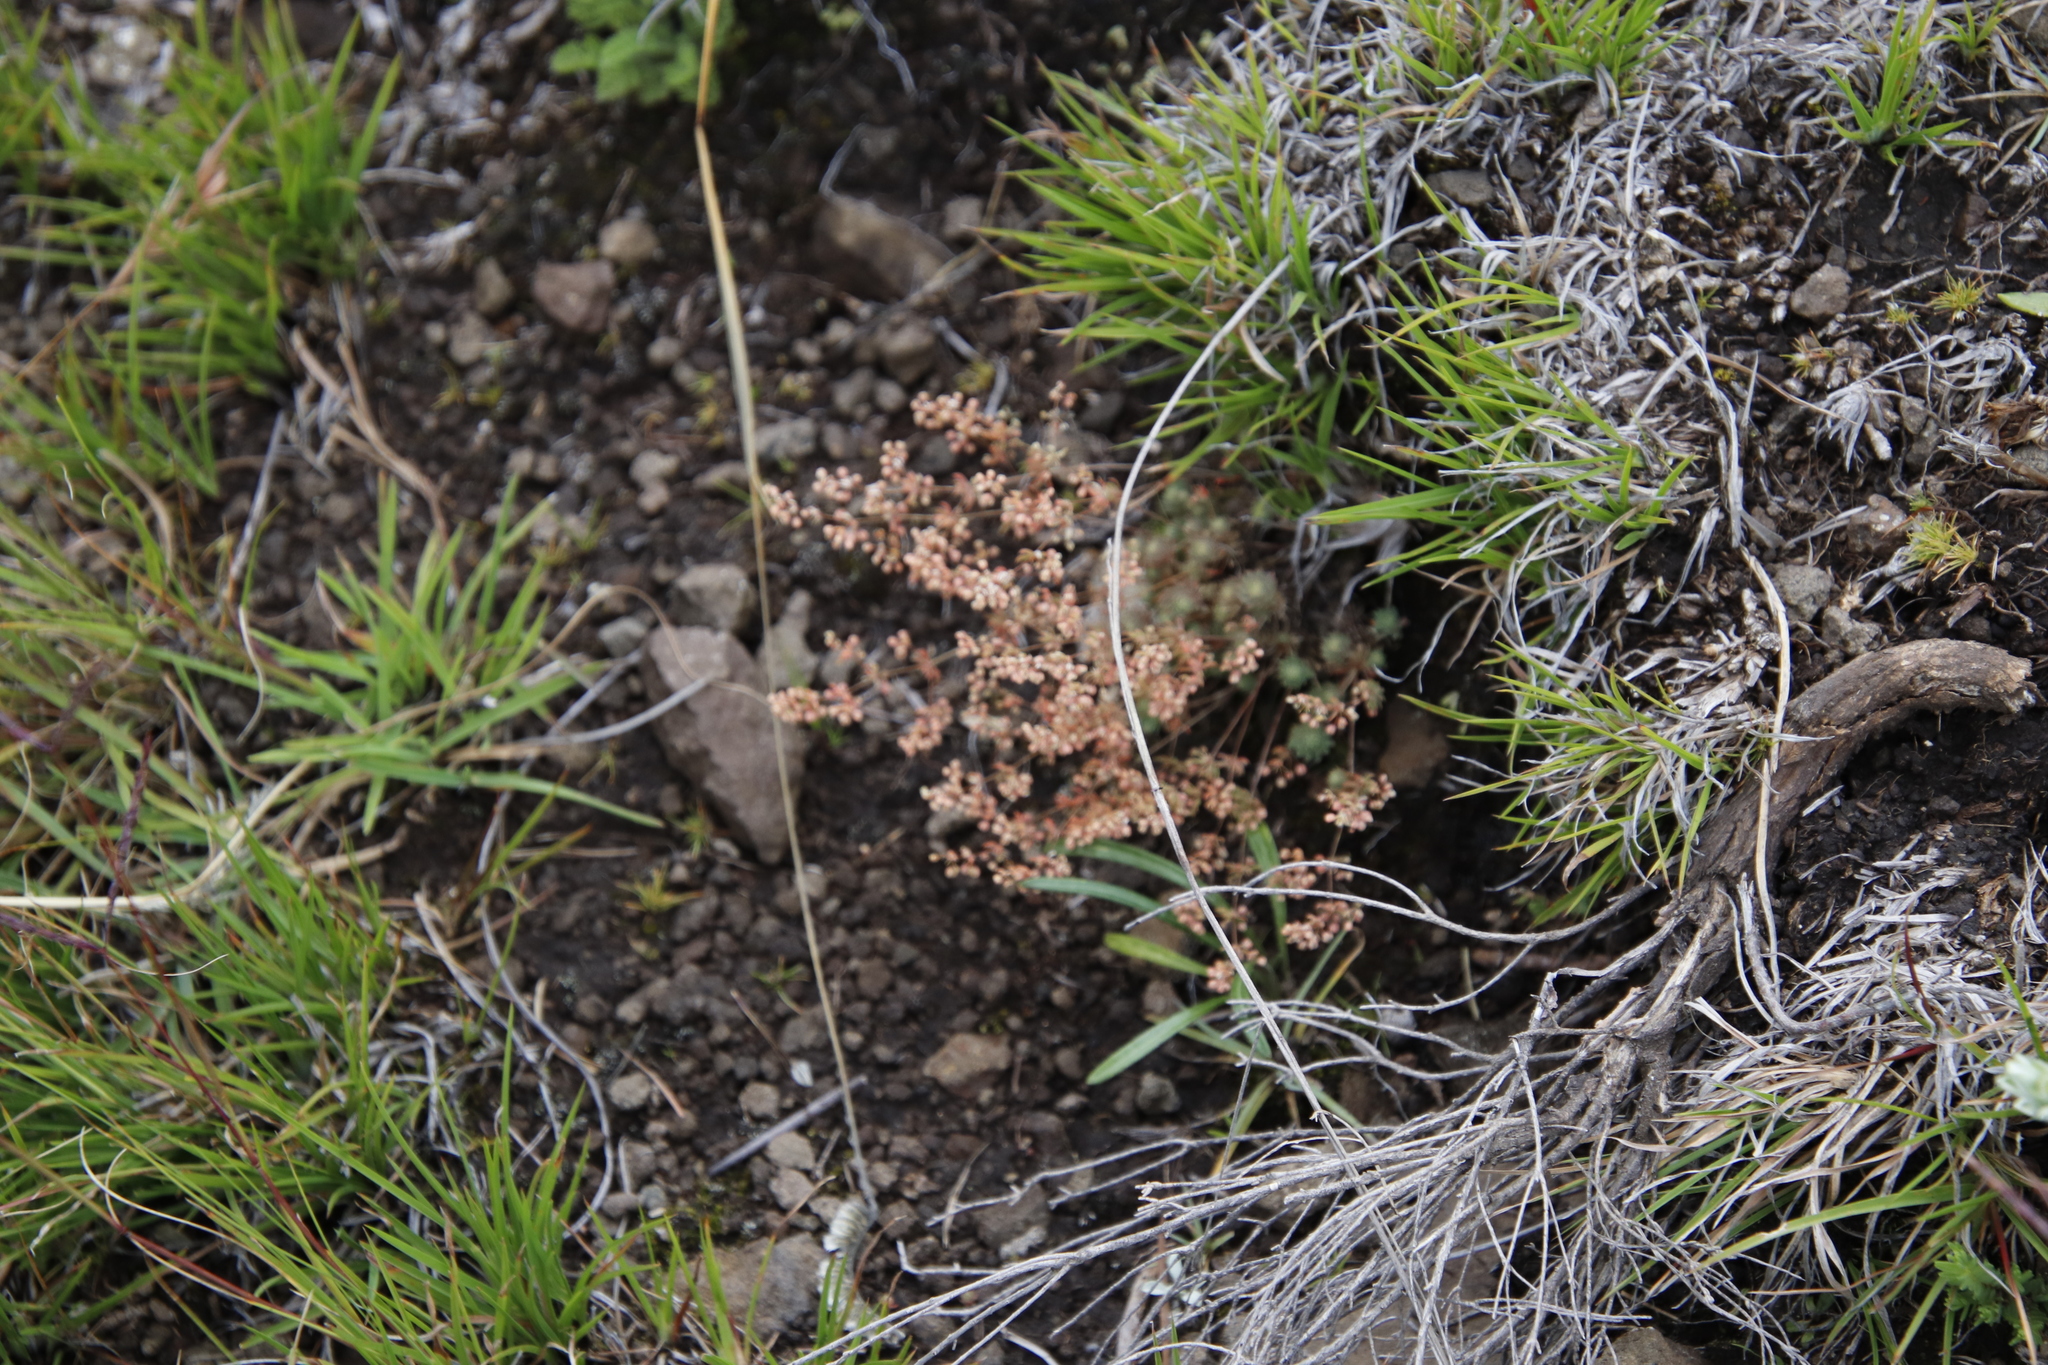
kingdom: Plantae
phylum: Tracheophyta
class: Magnoliopsida
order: Caryophyllales
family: Molluginaceae
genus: Psammotropha
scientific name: Psammotropha mucronata
